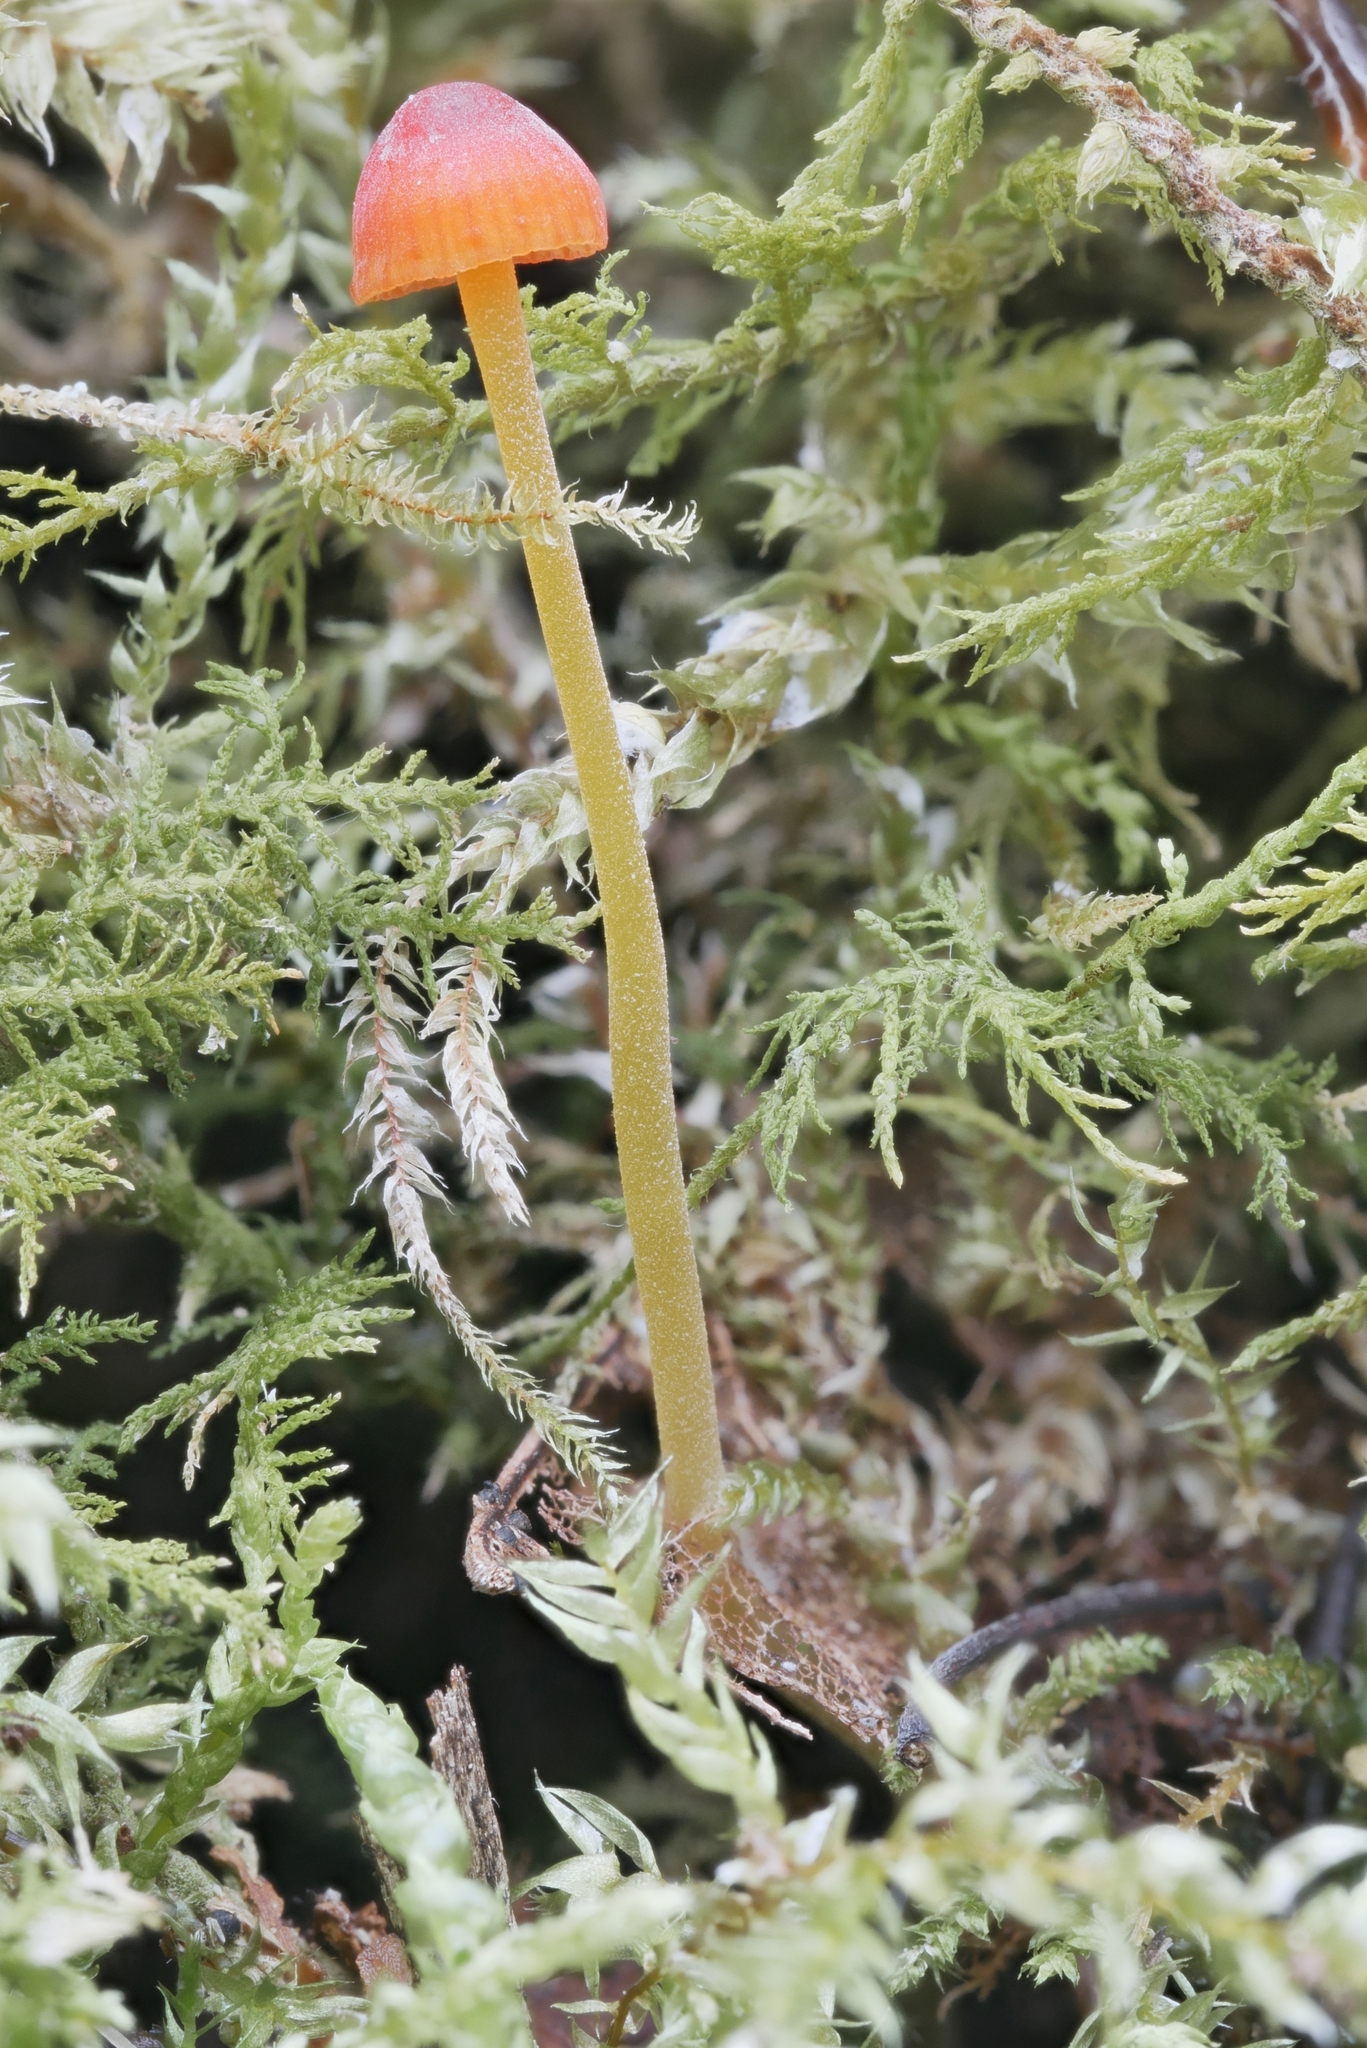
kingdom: Fungi
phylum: Basidiomycota
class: Agaricomycetes
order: Agaricales
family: Mycenaceae
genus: Mycena
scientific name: Mycena acicula
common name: Orange bonnet
